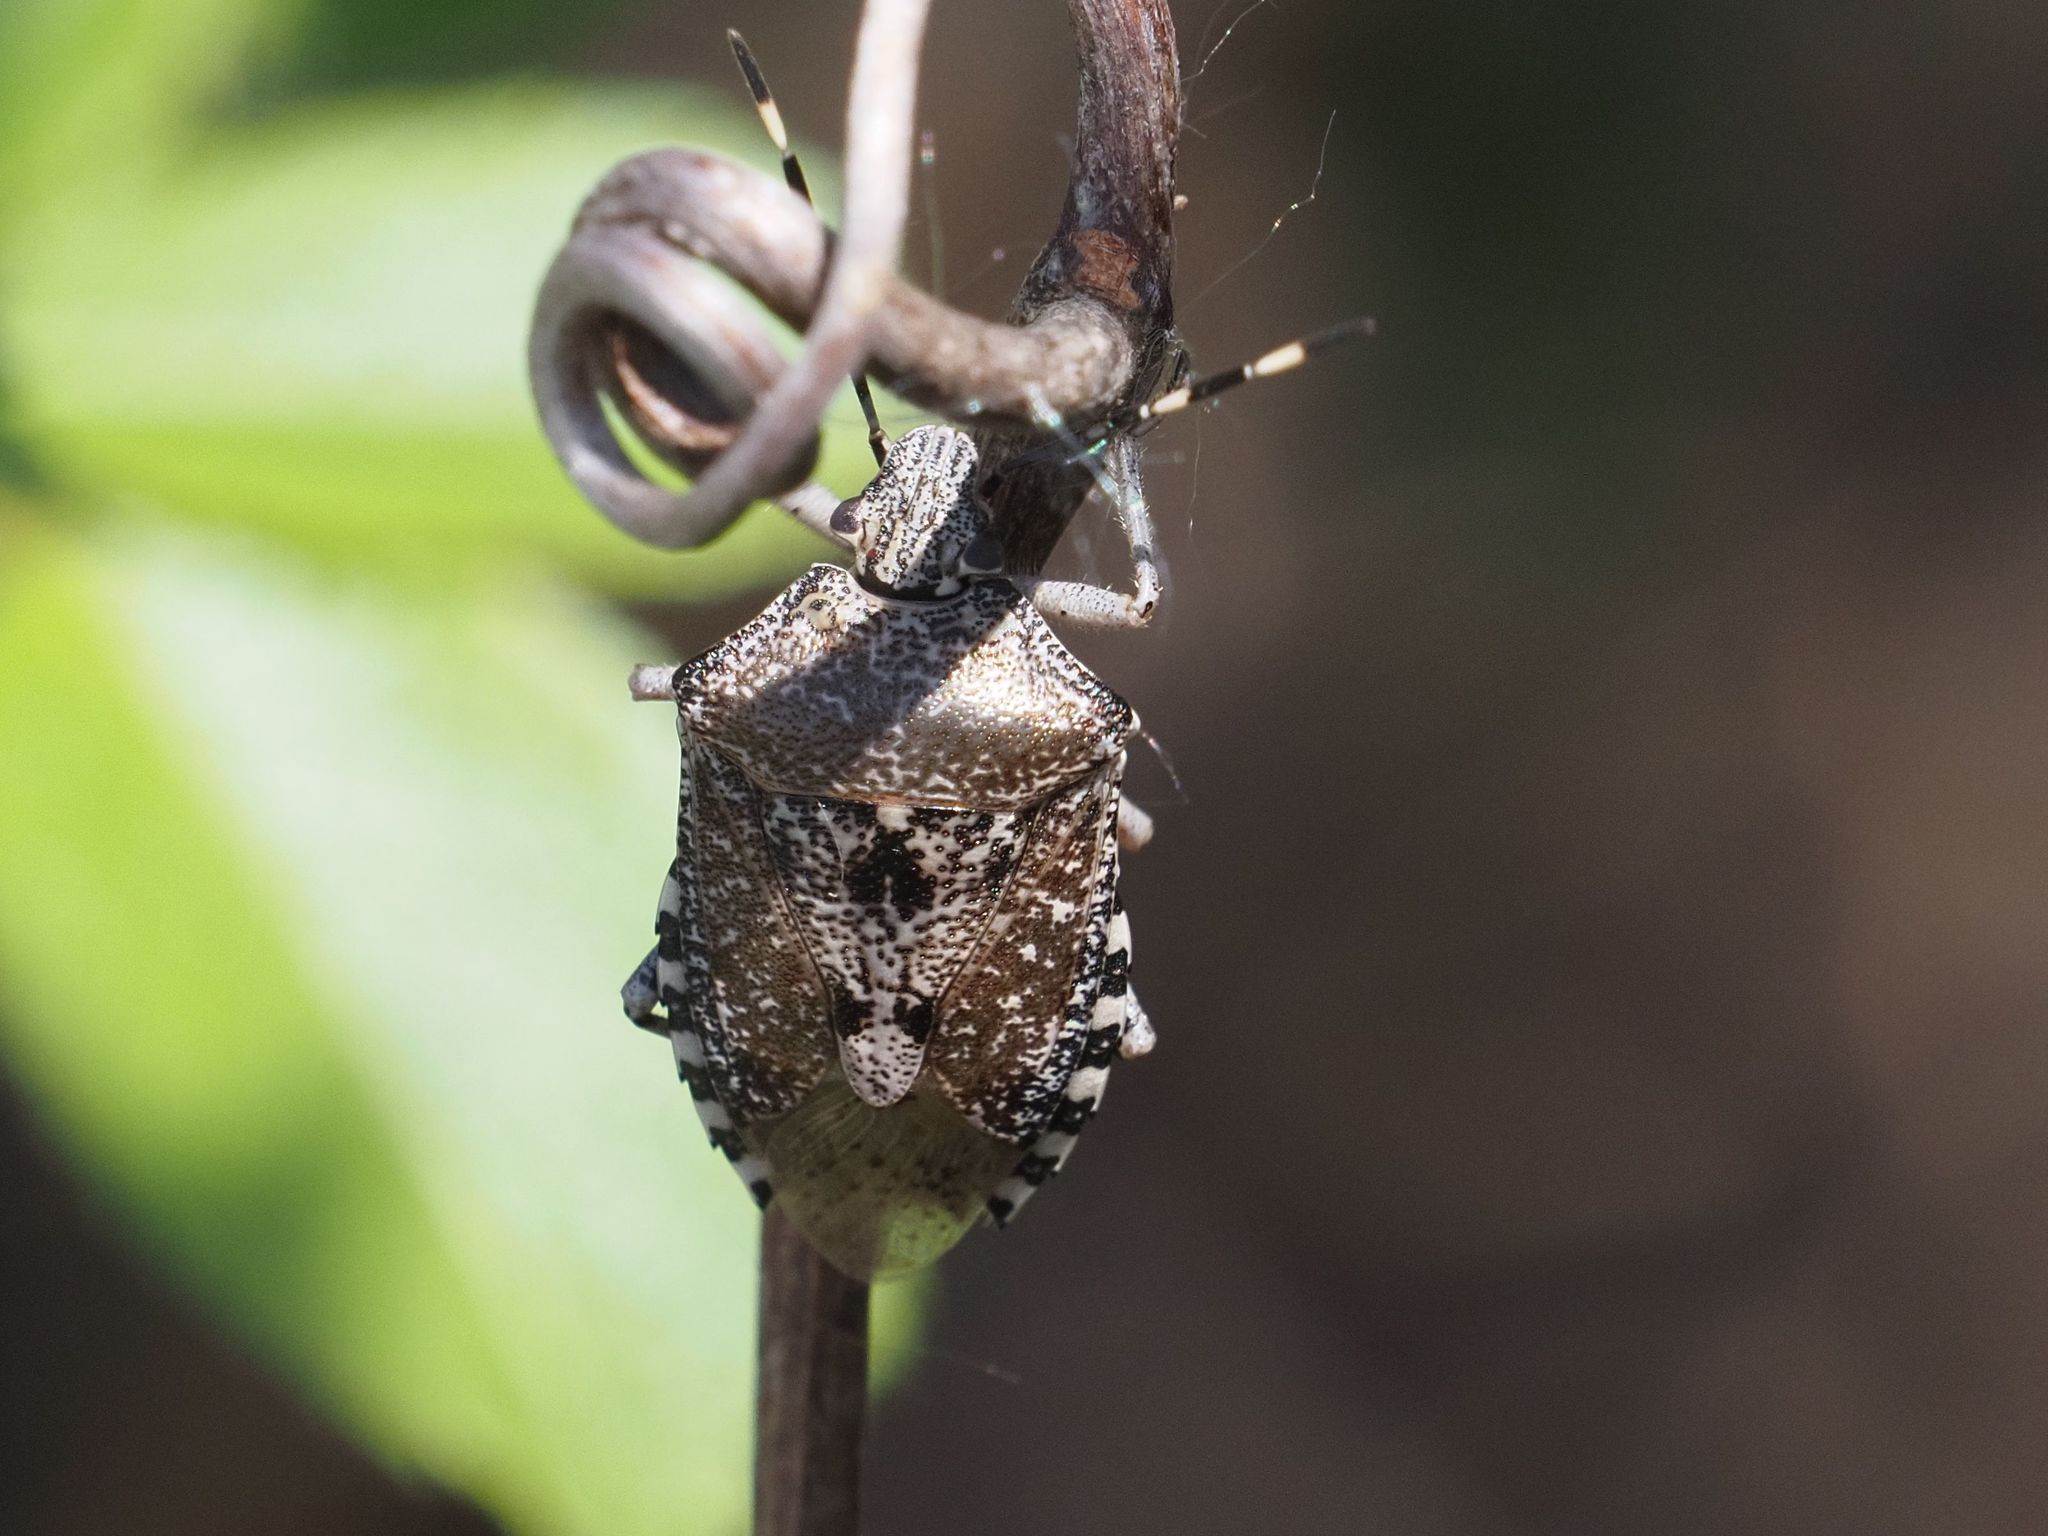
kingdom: Animalia
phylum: Arthropoda
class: Insecta
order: Hemiptera
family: Pentatomidae
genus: Rhaphigaster
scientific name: Rhaphigaster nebulosa
